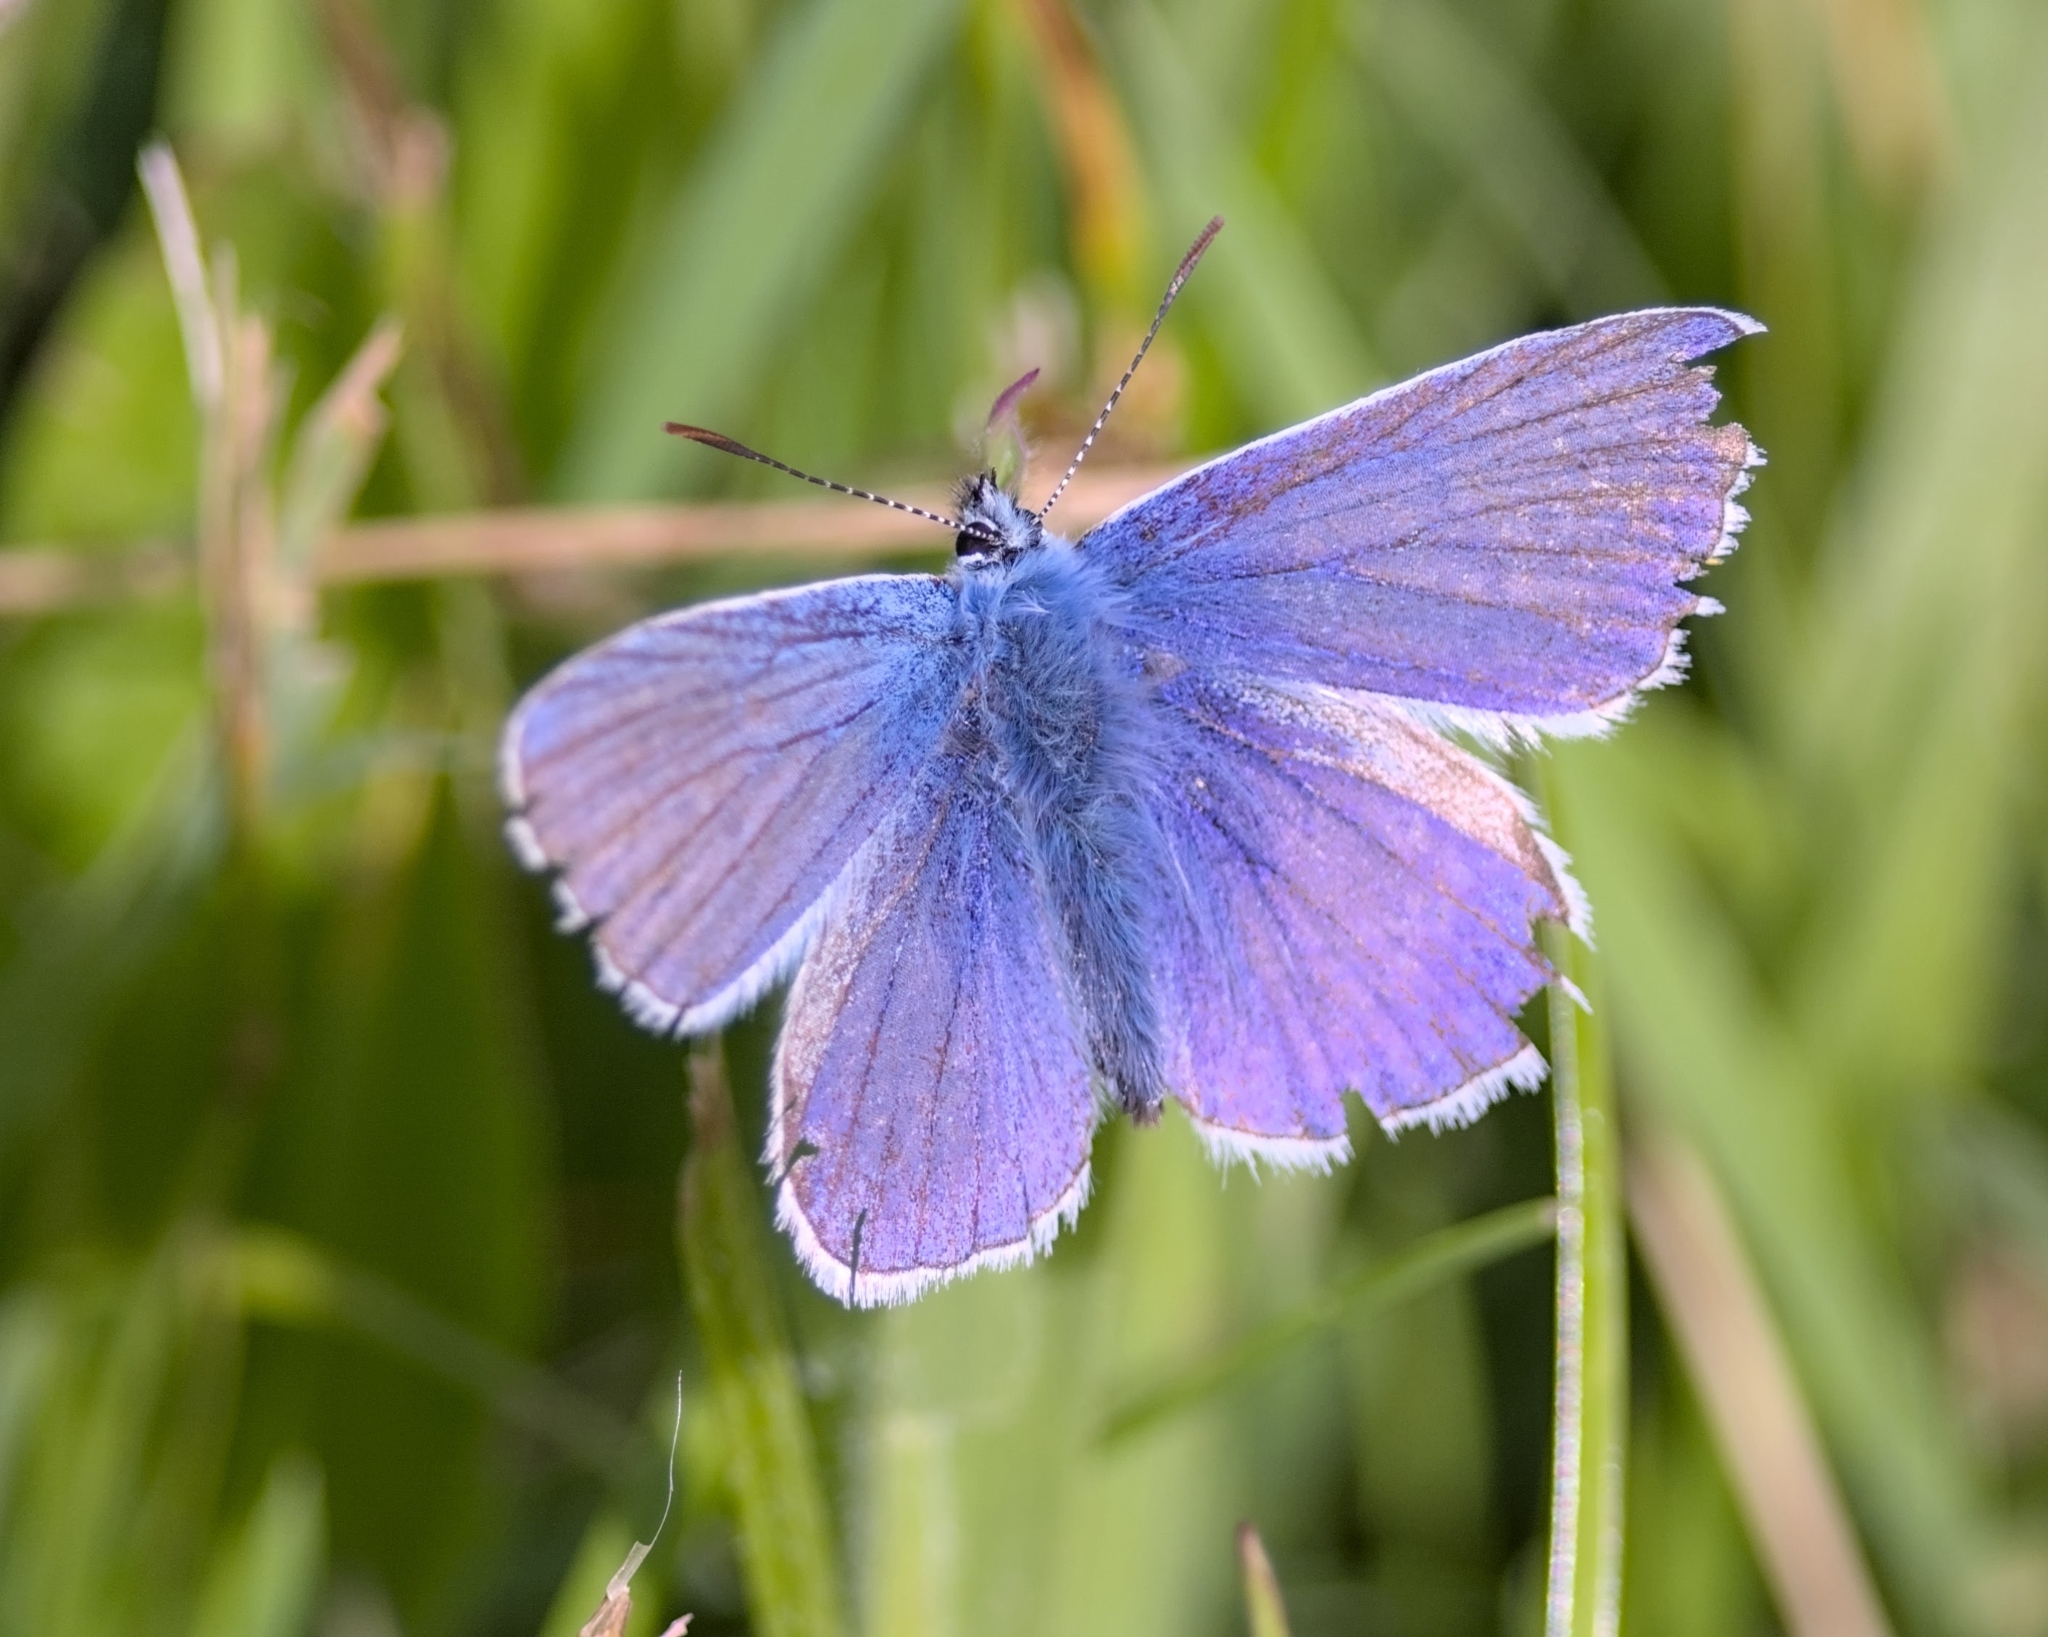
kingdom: Animalia
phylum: Arthropoda
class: Insecta
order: Lepidoptera
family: Lycaenidae
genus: Polyommatus
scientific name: Polyommatus icarus
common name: Common blue
